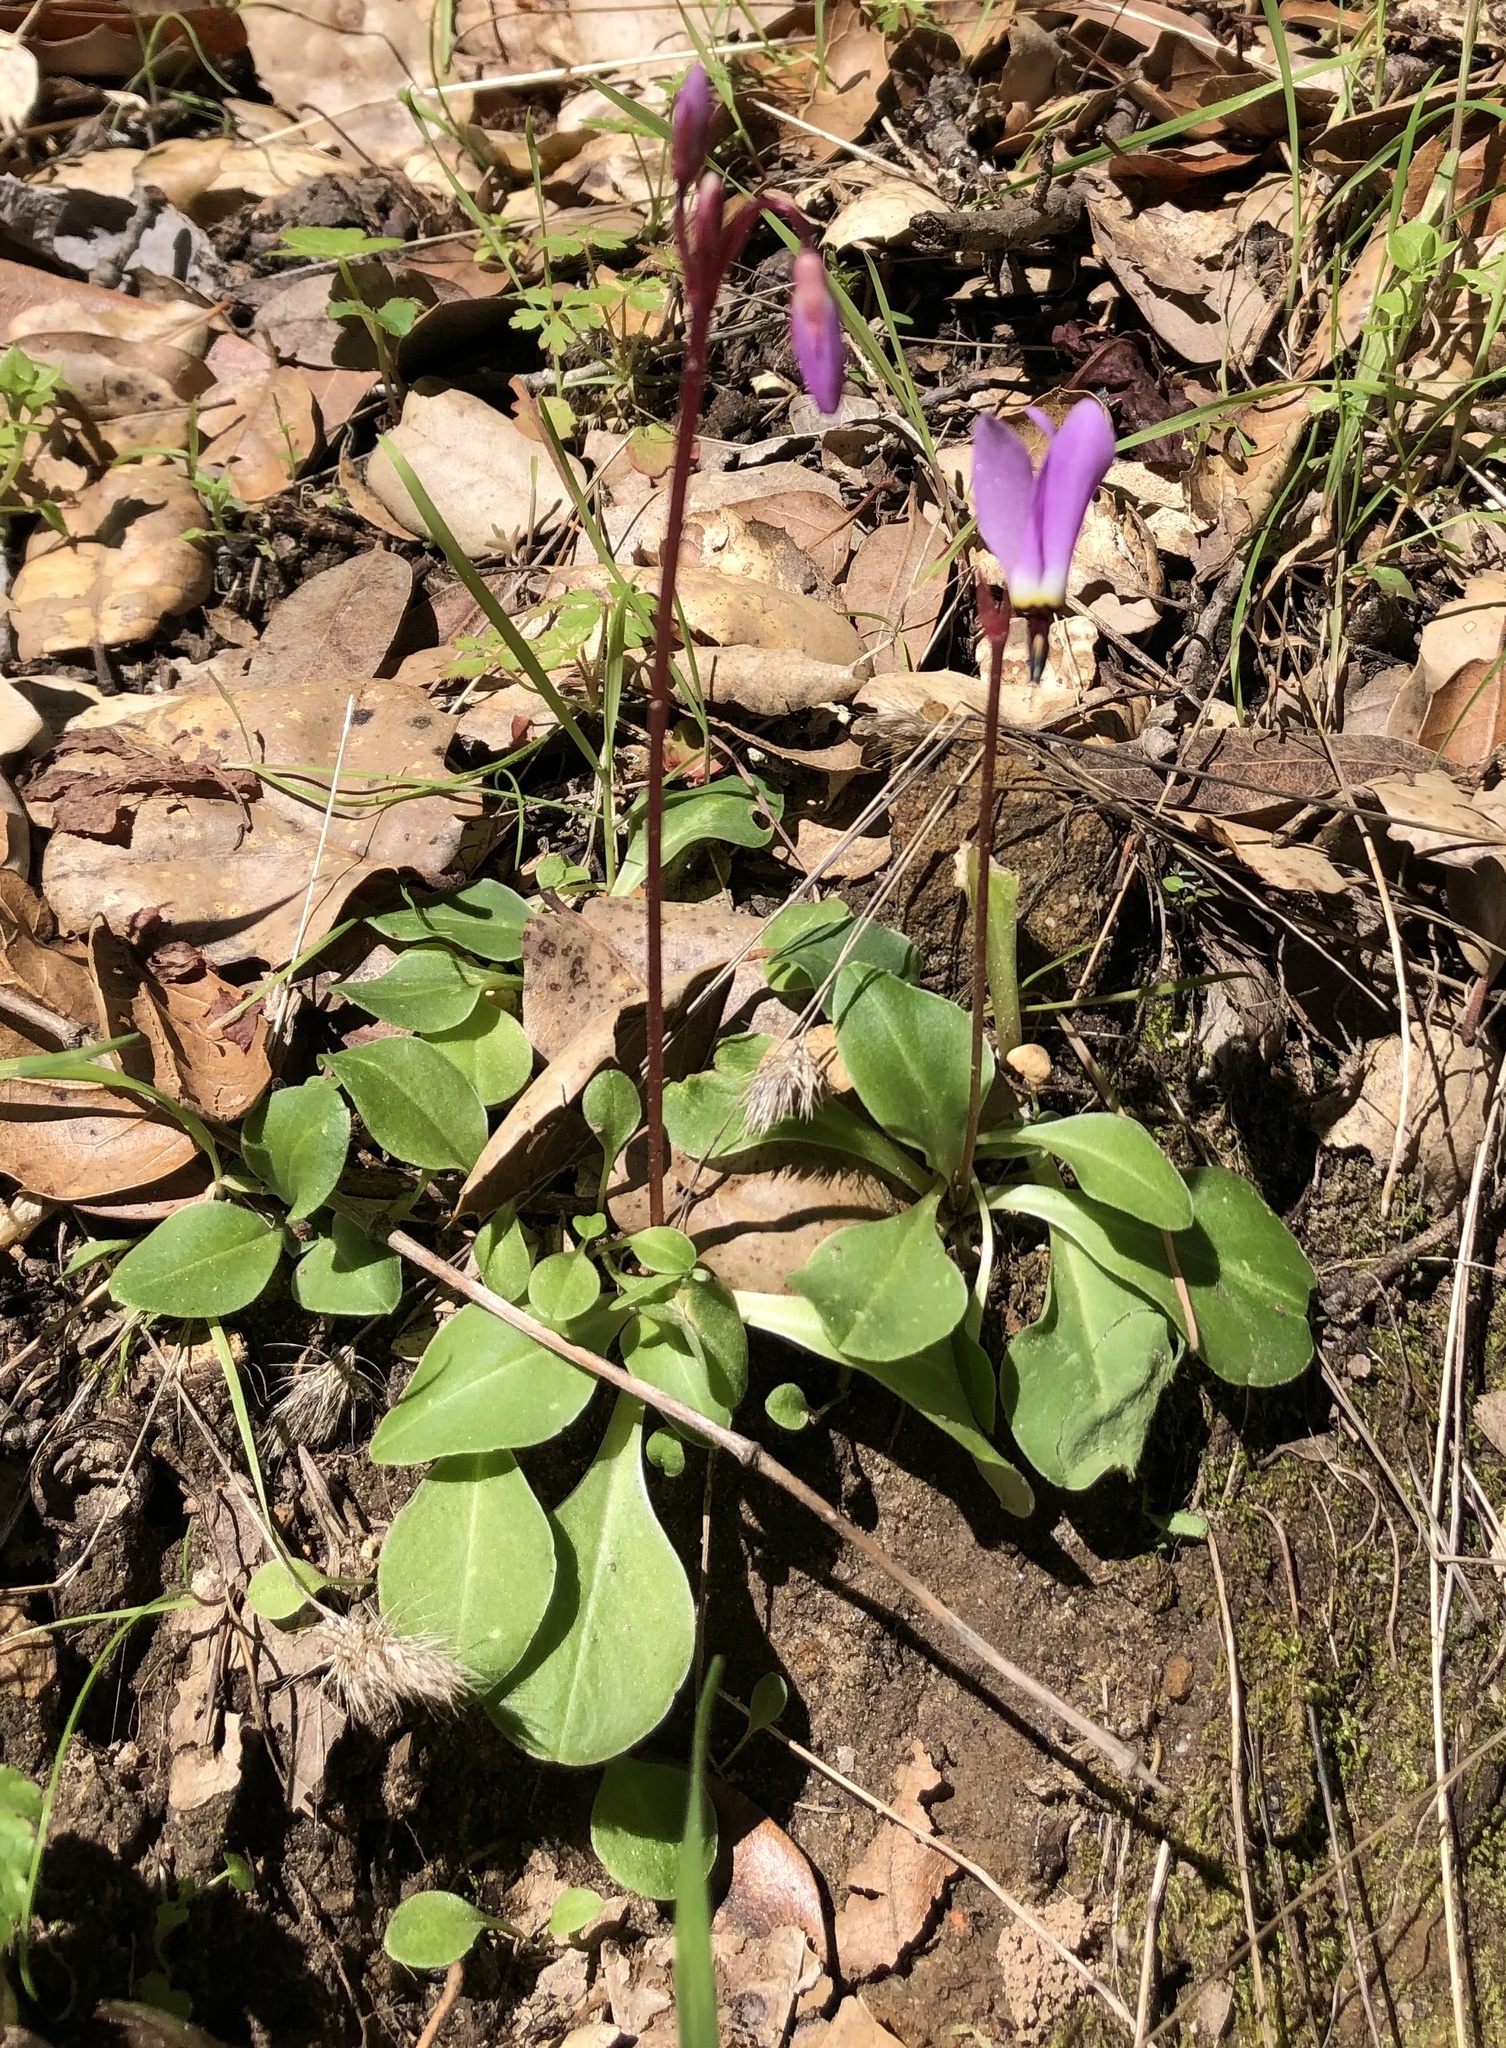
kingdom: Plantae
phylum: Tracheophyta
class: Magnoliopsida
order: Ericales
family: Primulaceae
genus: Dodecatheon
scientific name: Dodecatheon hendersonii
